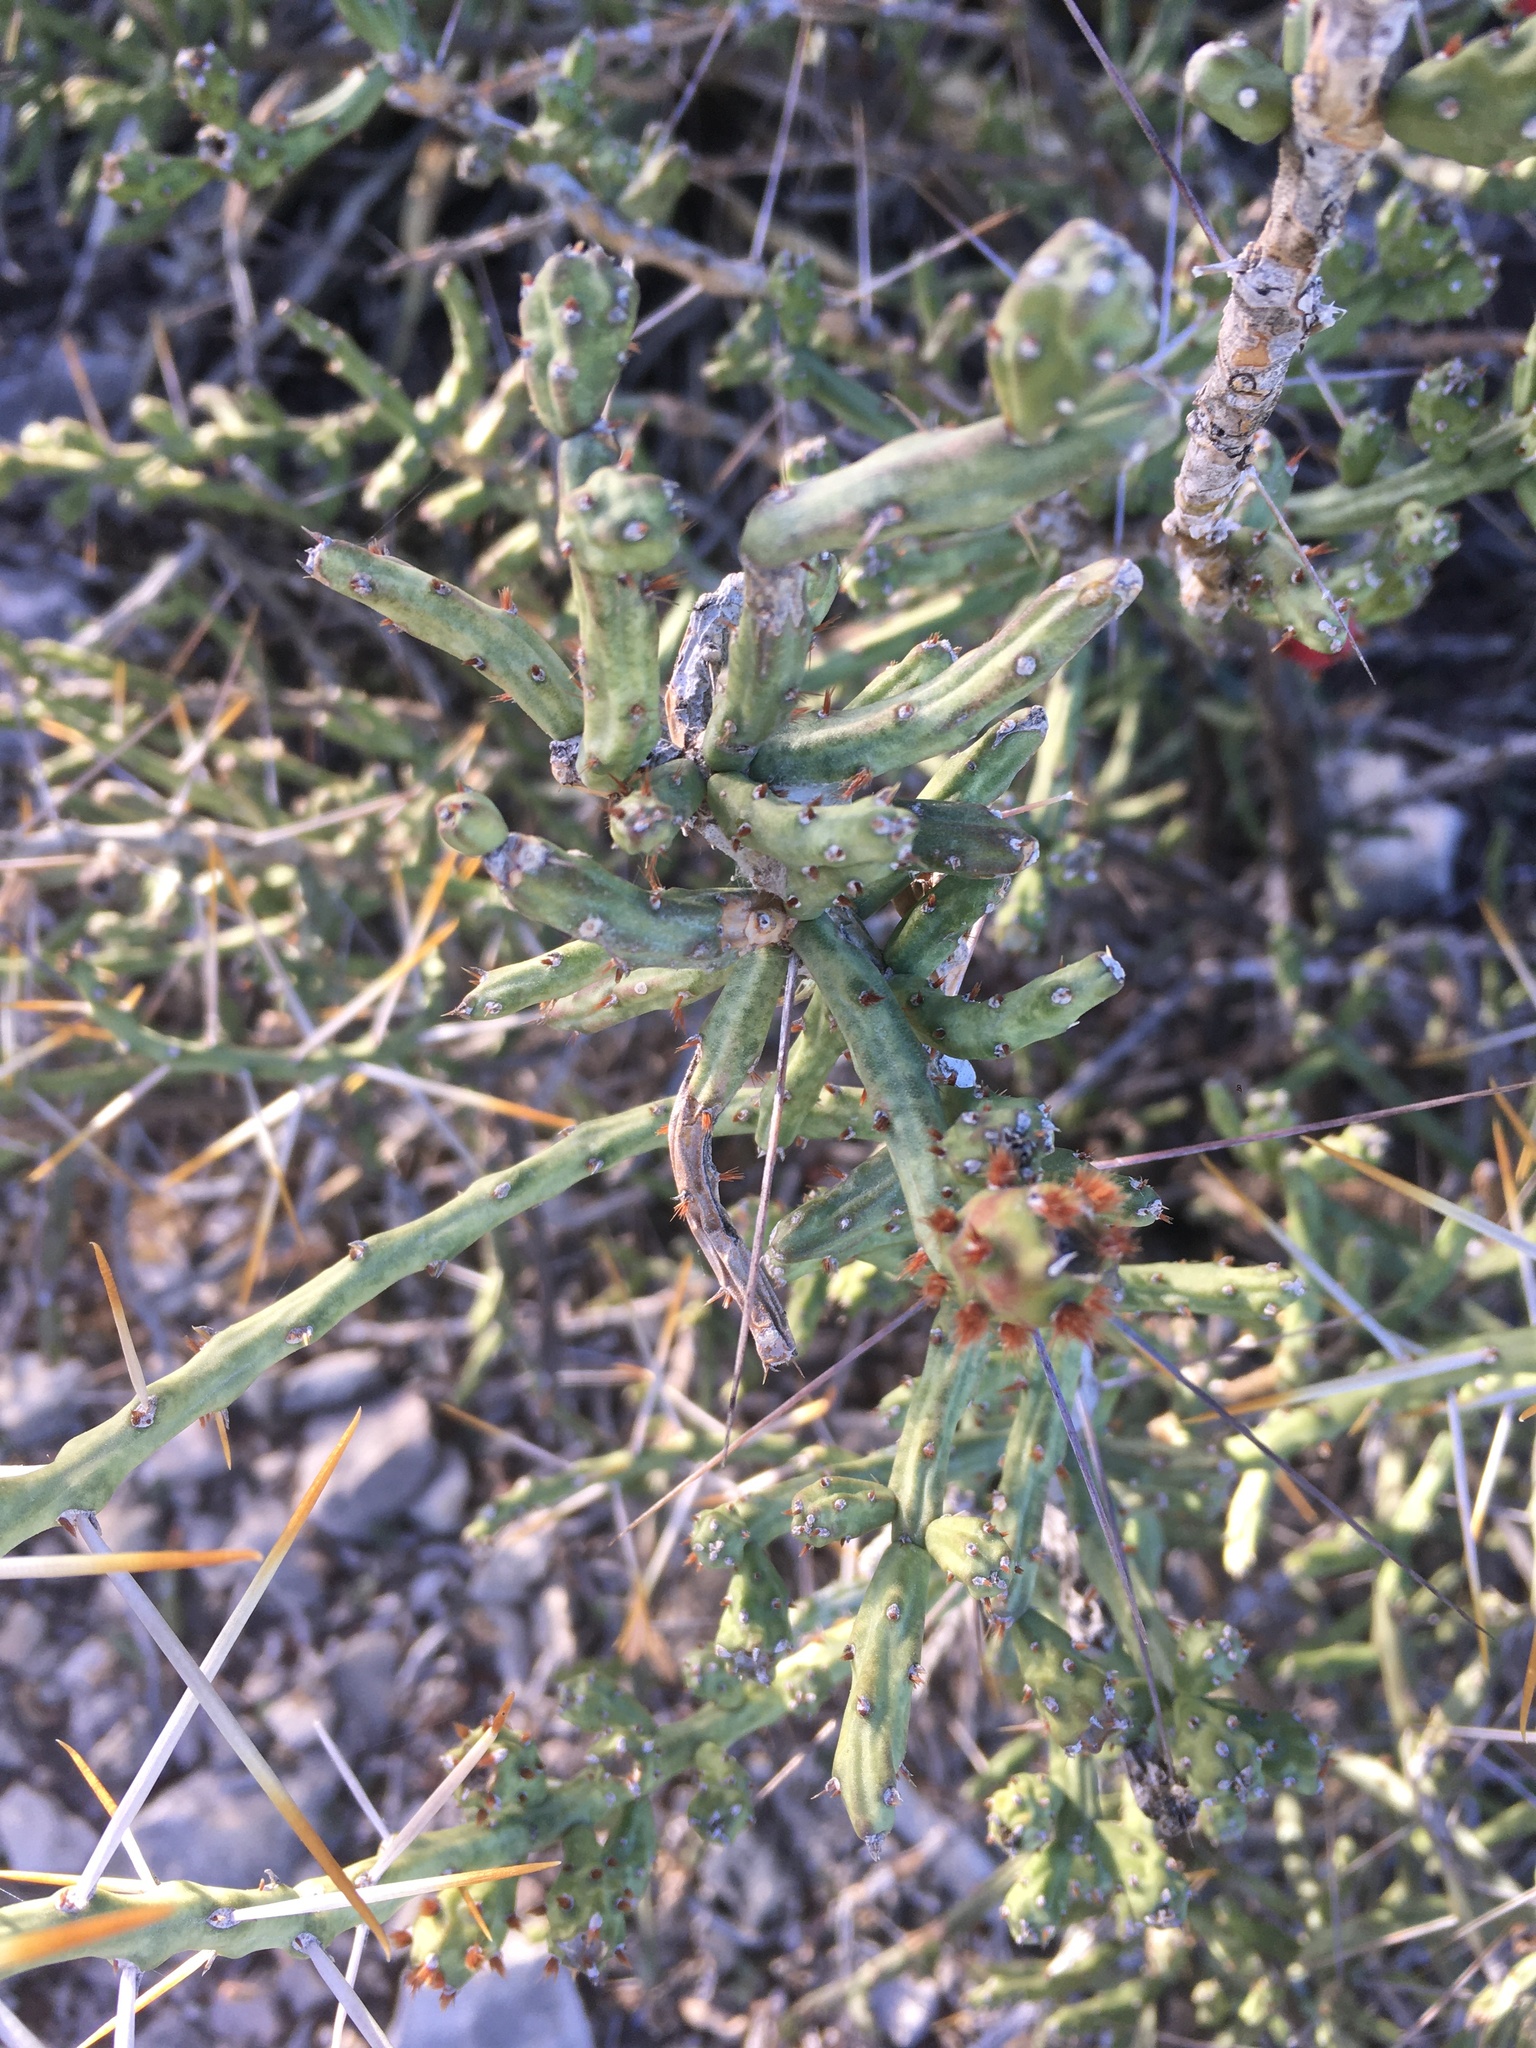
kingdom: Plantae
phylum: Tracheophyta
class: Magnoliopsida
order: Caryophyllales
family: Cactaceae
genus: Cylindropuntia
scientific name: Cylindropuntia leptocaulis
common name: Christmas cactus
